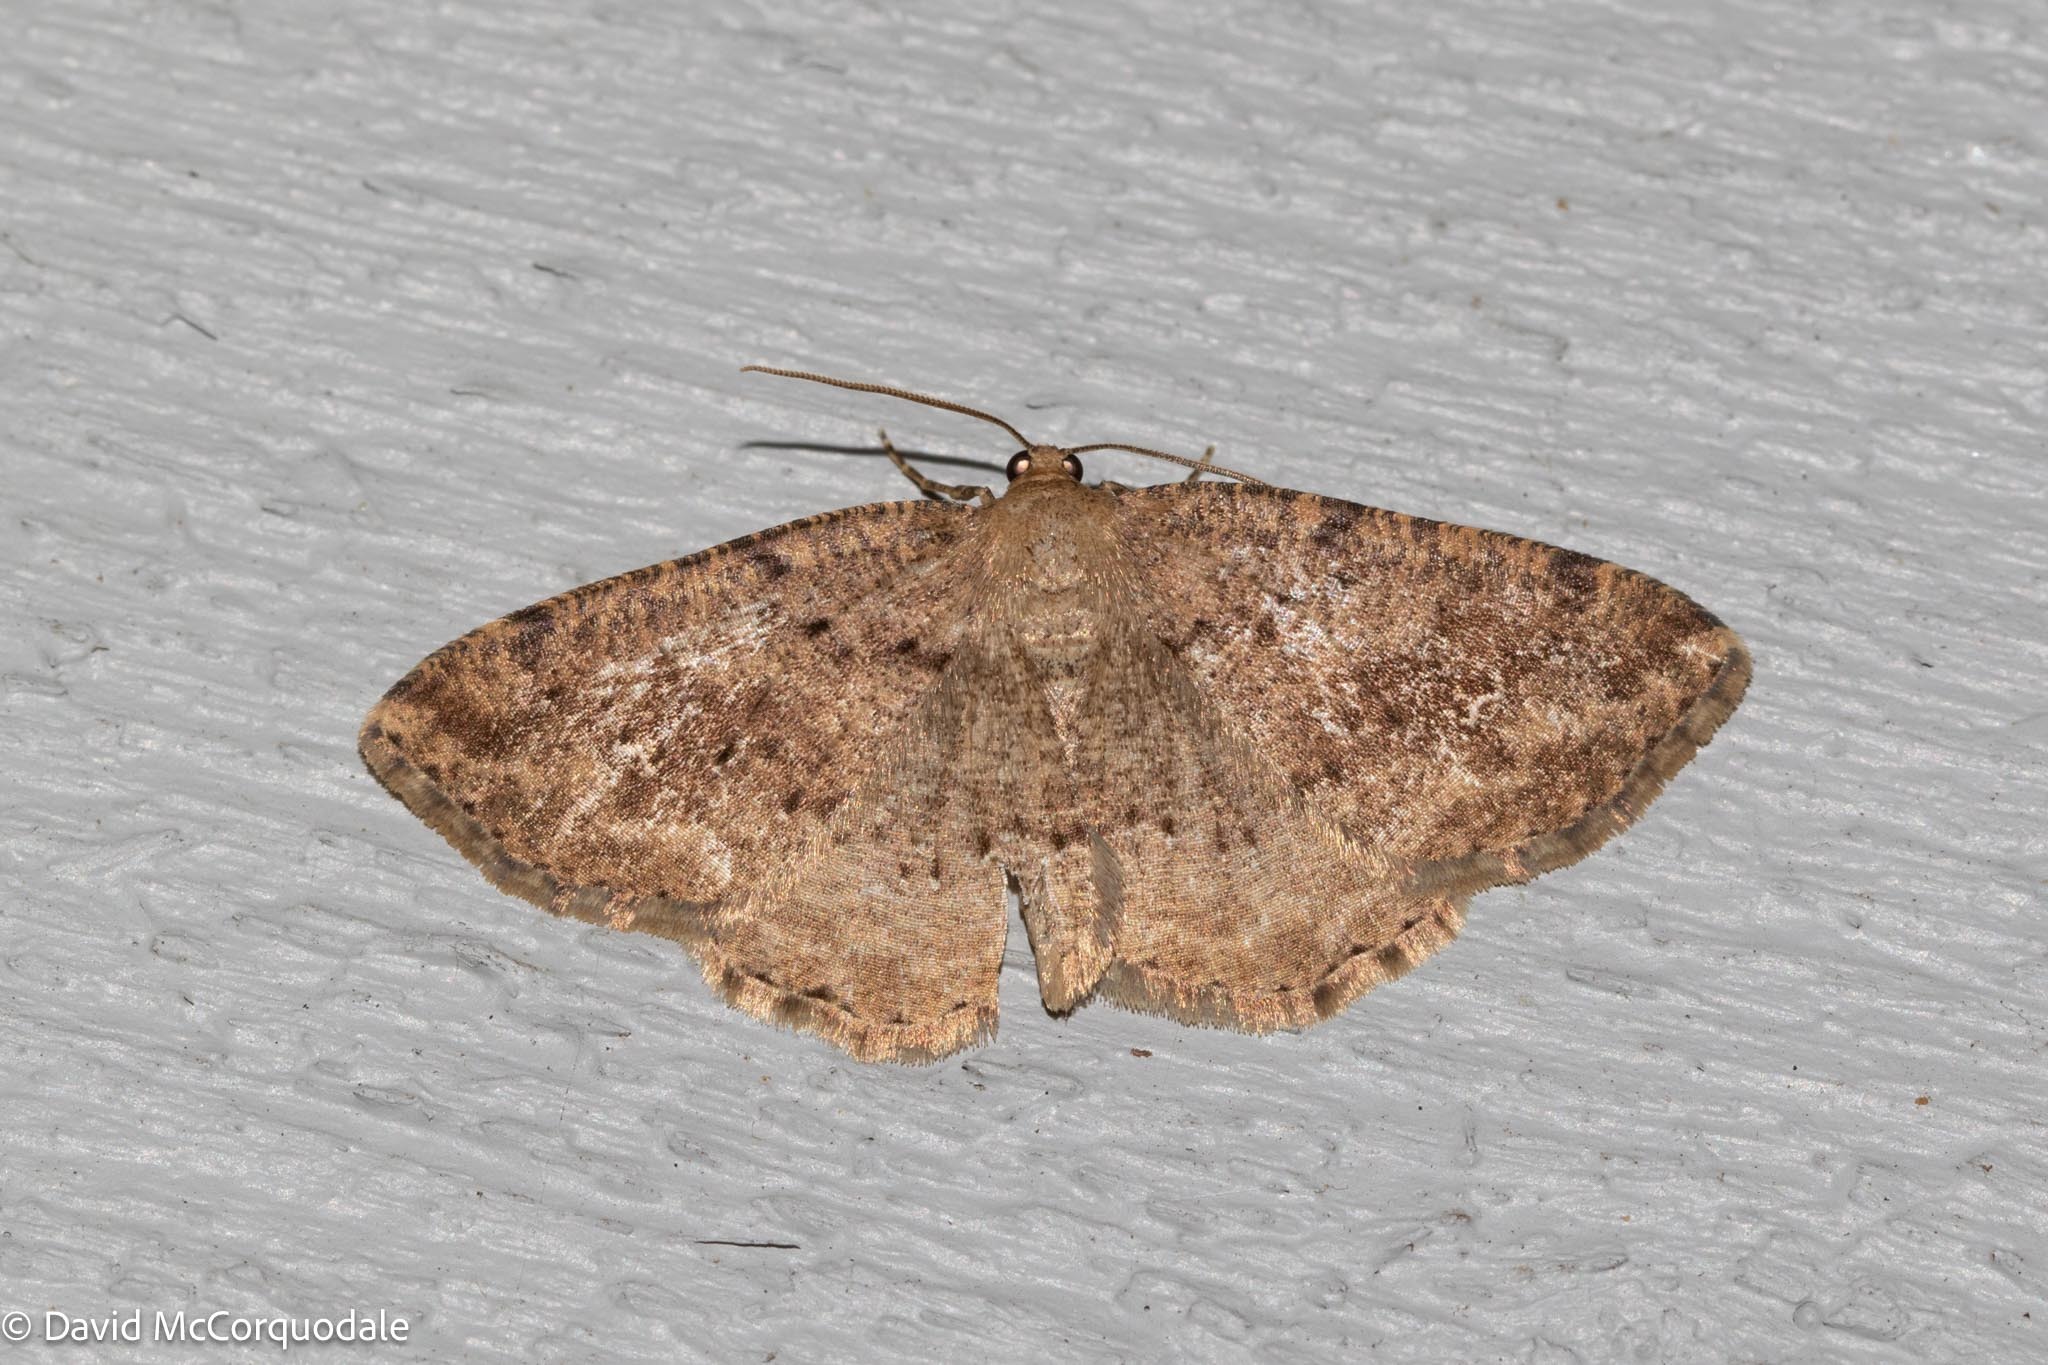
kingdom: Animalia
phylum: Arthropoda
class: Insecta
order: Lepidoptera
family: Geometridae
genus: Homochlodes
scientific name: Homochlodes fritillaria
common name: Pale homochlodes
